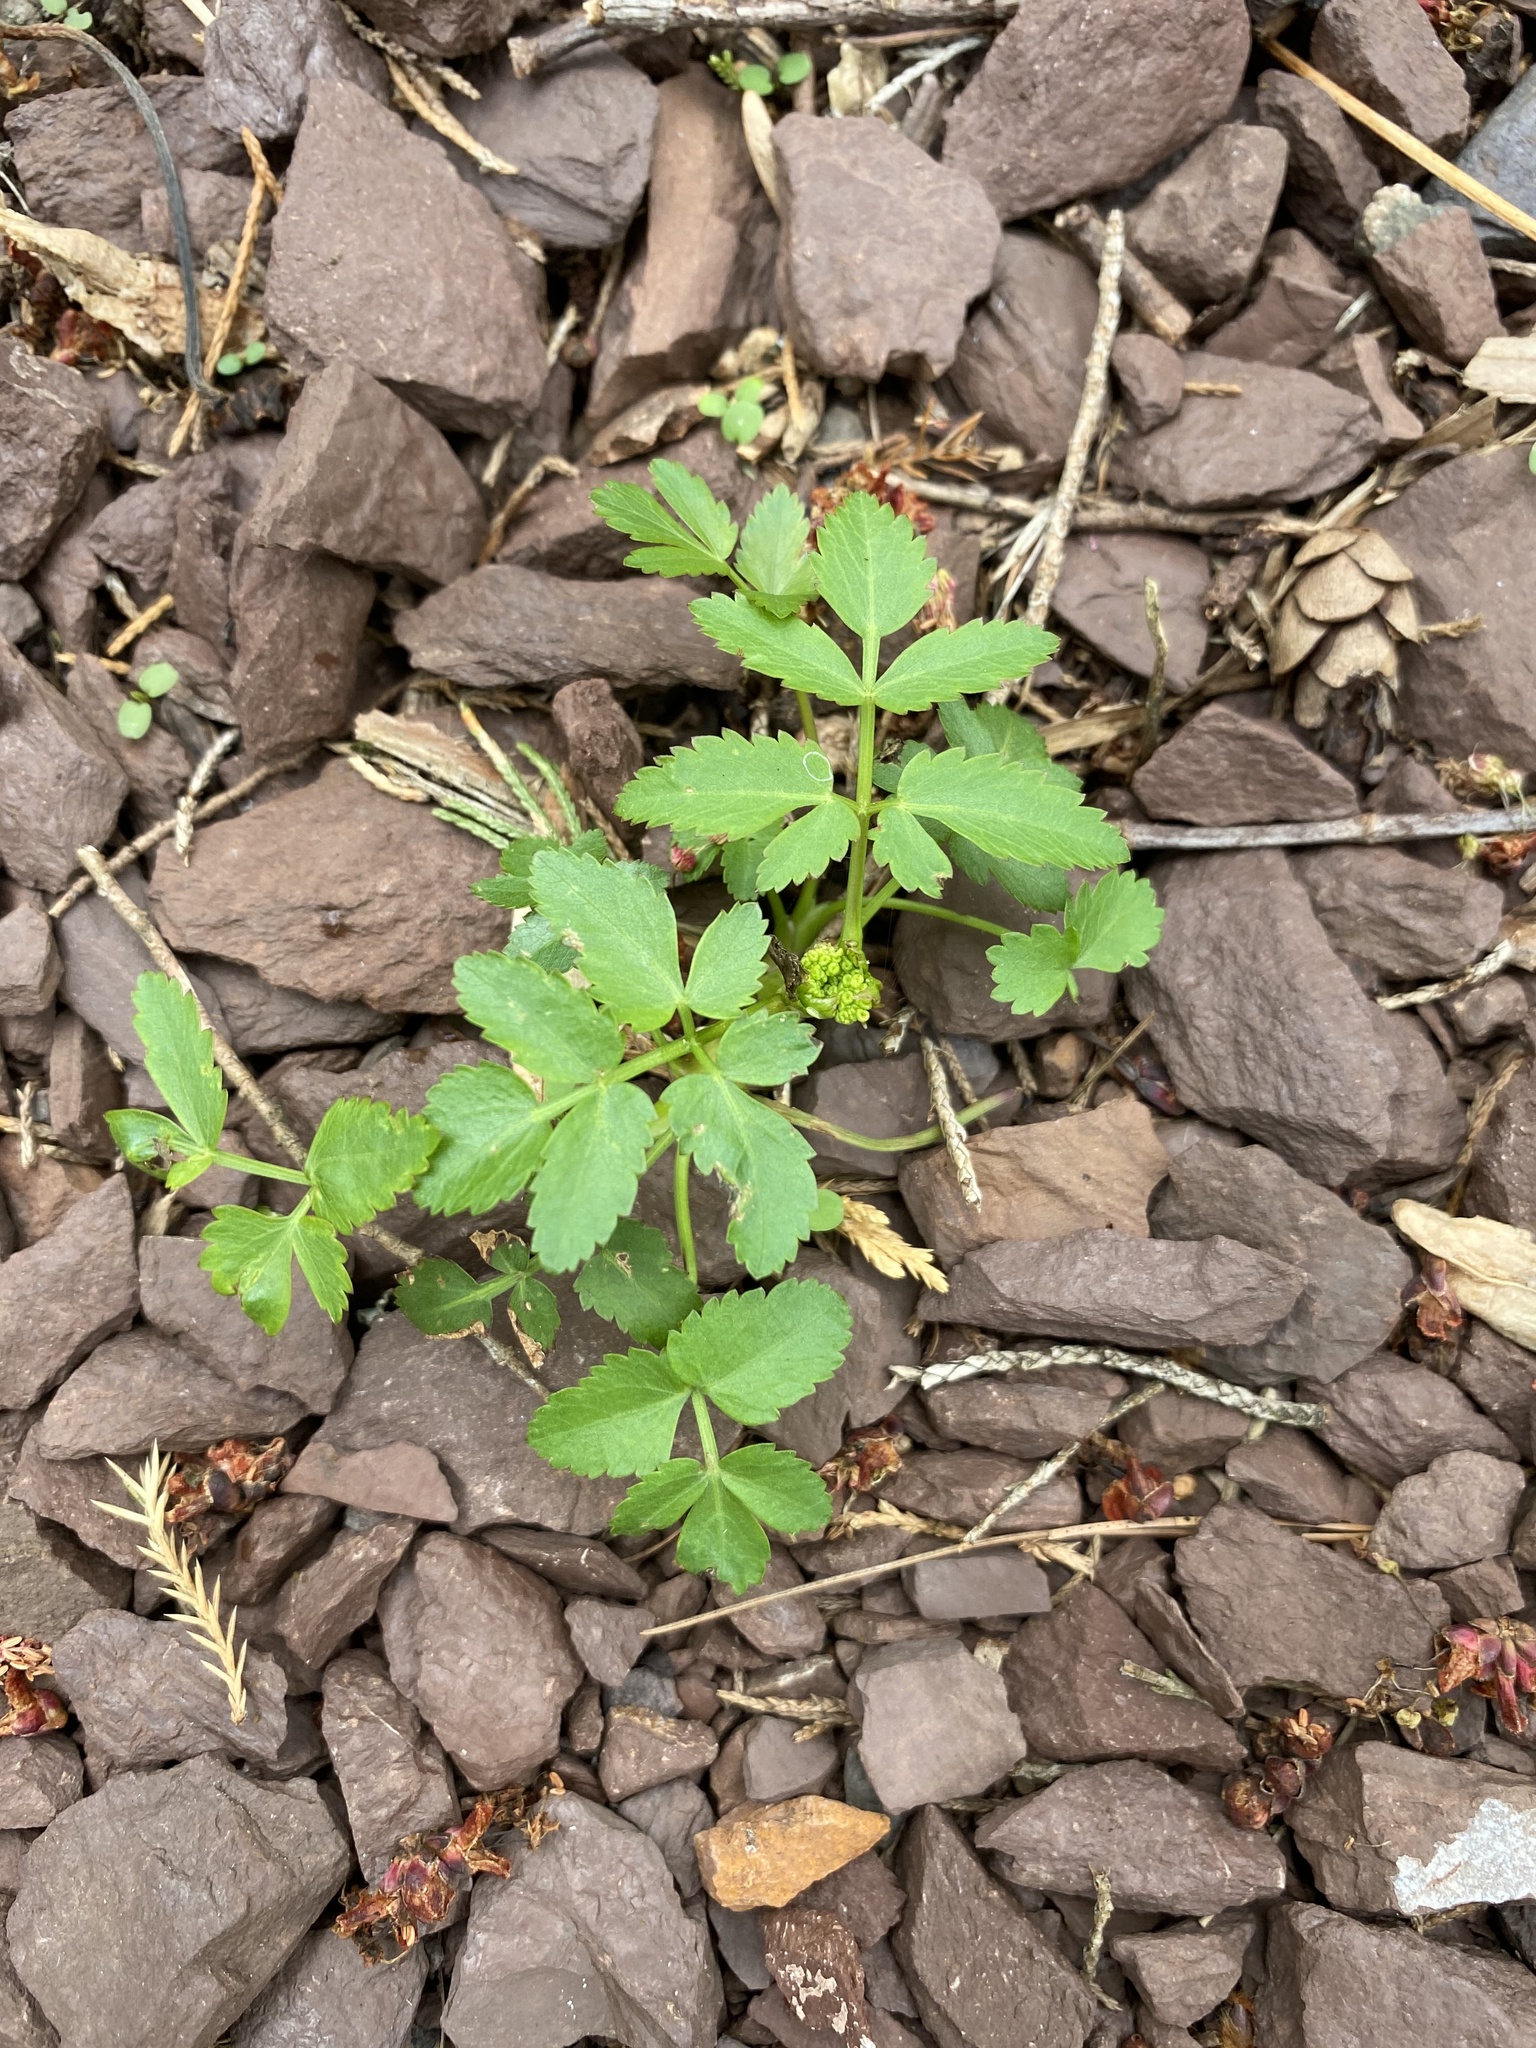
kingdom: Plantae
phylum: Tracheophyta
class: Magnoliopsida
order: Apiales
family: Apiaceae
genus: Zizia
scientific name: Zizia aurea
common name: Golden alexanders
